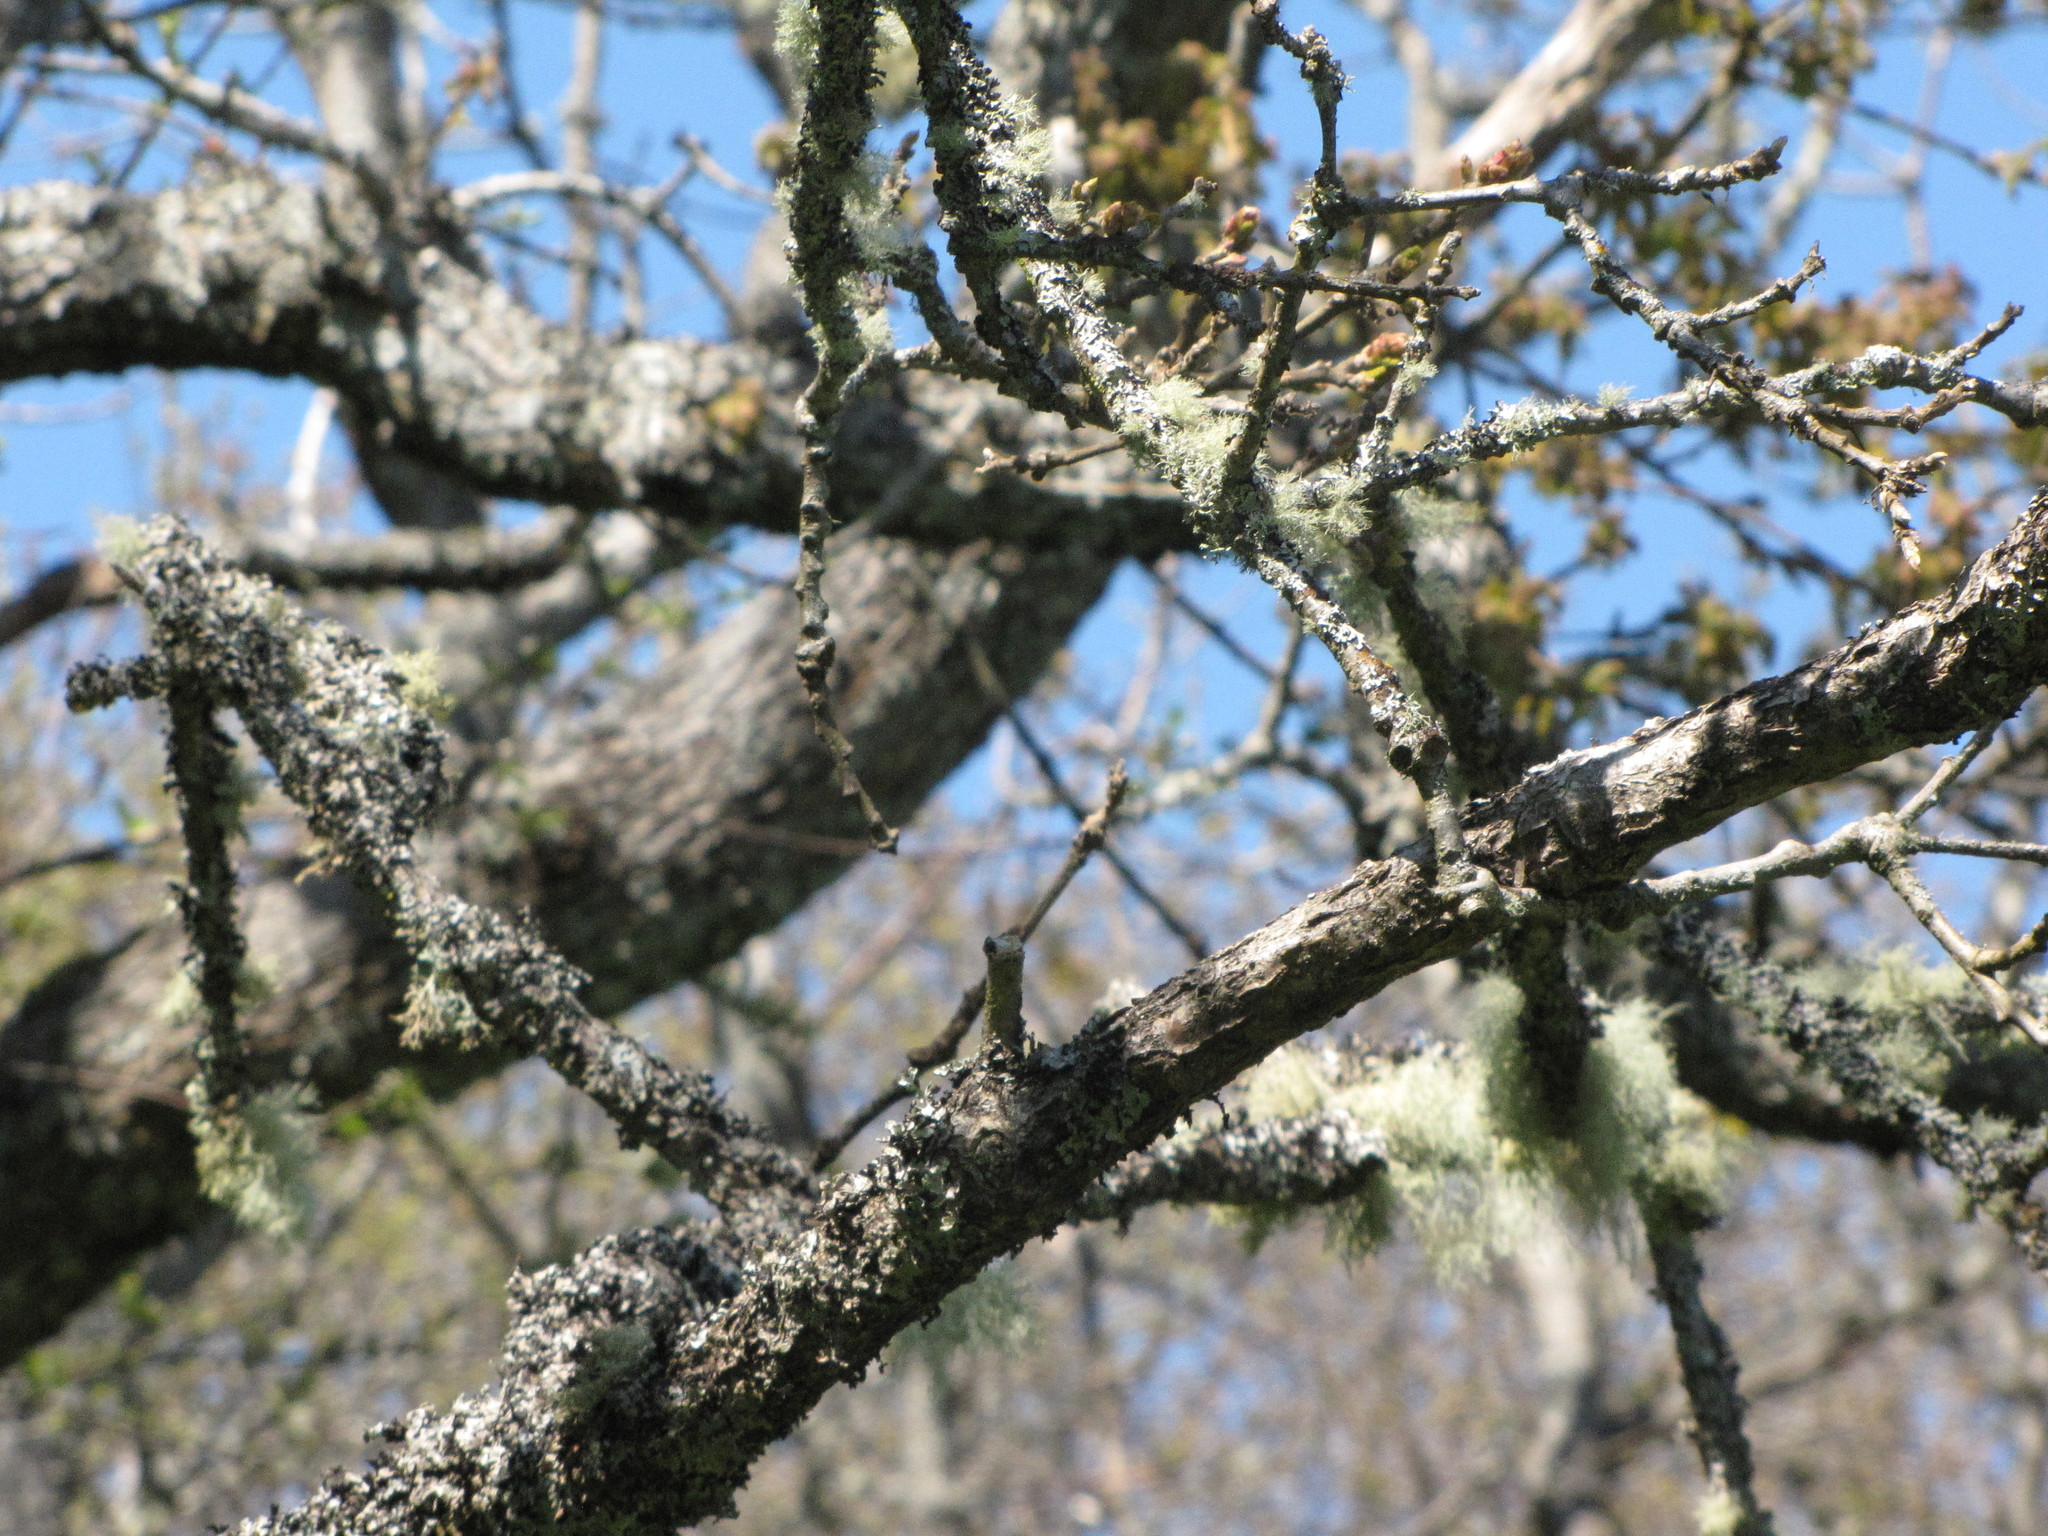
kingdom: Plantae
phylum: Tracheophyta
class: Magnoliopsida
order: Fagales
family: Fagaceae
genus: Quercus
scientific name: Quercus garryana
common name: Garry oak
